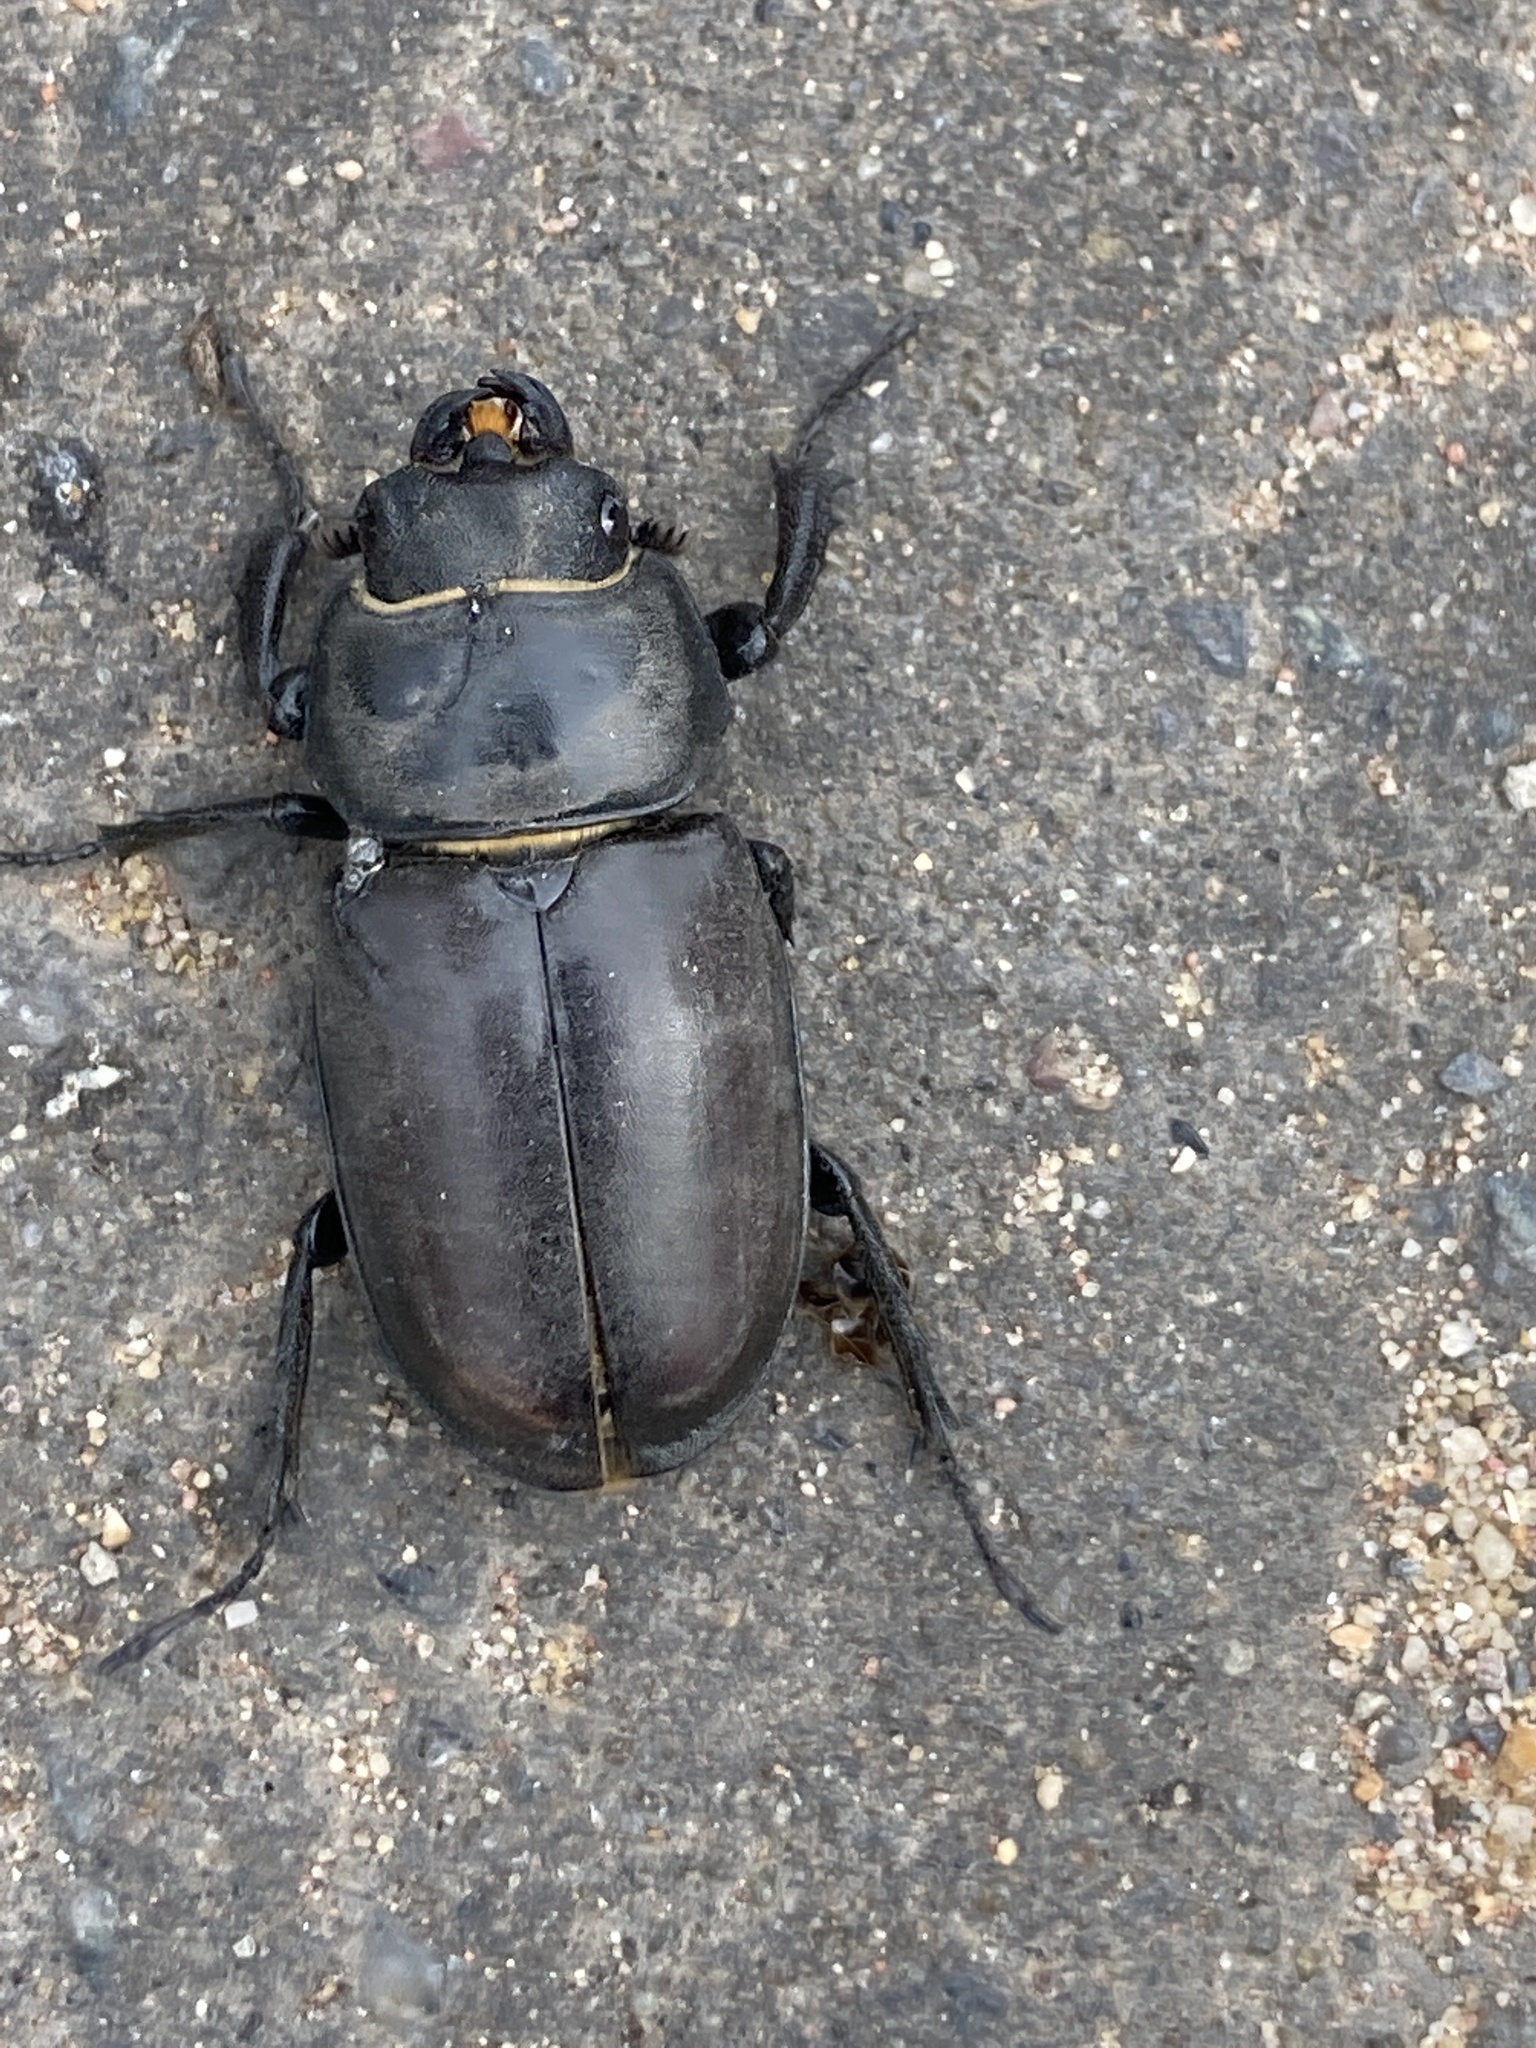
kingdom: Animalia
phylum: Arthropoda
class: Insecta
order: Coleoptera
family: Lucanidae
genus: Lucanus
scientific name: Lucanus cervus
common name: Stag beetle
